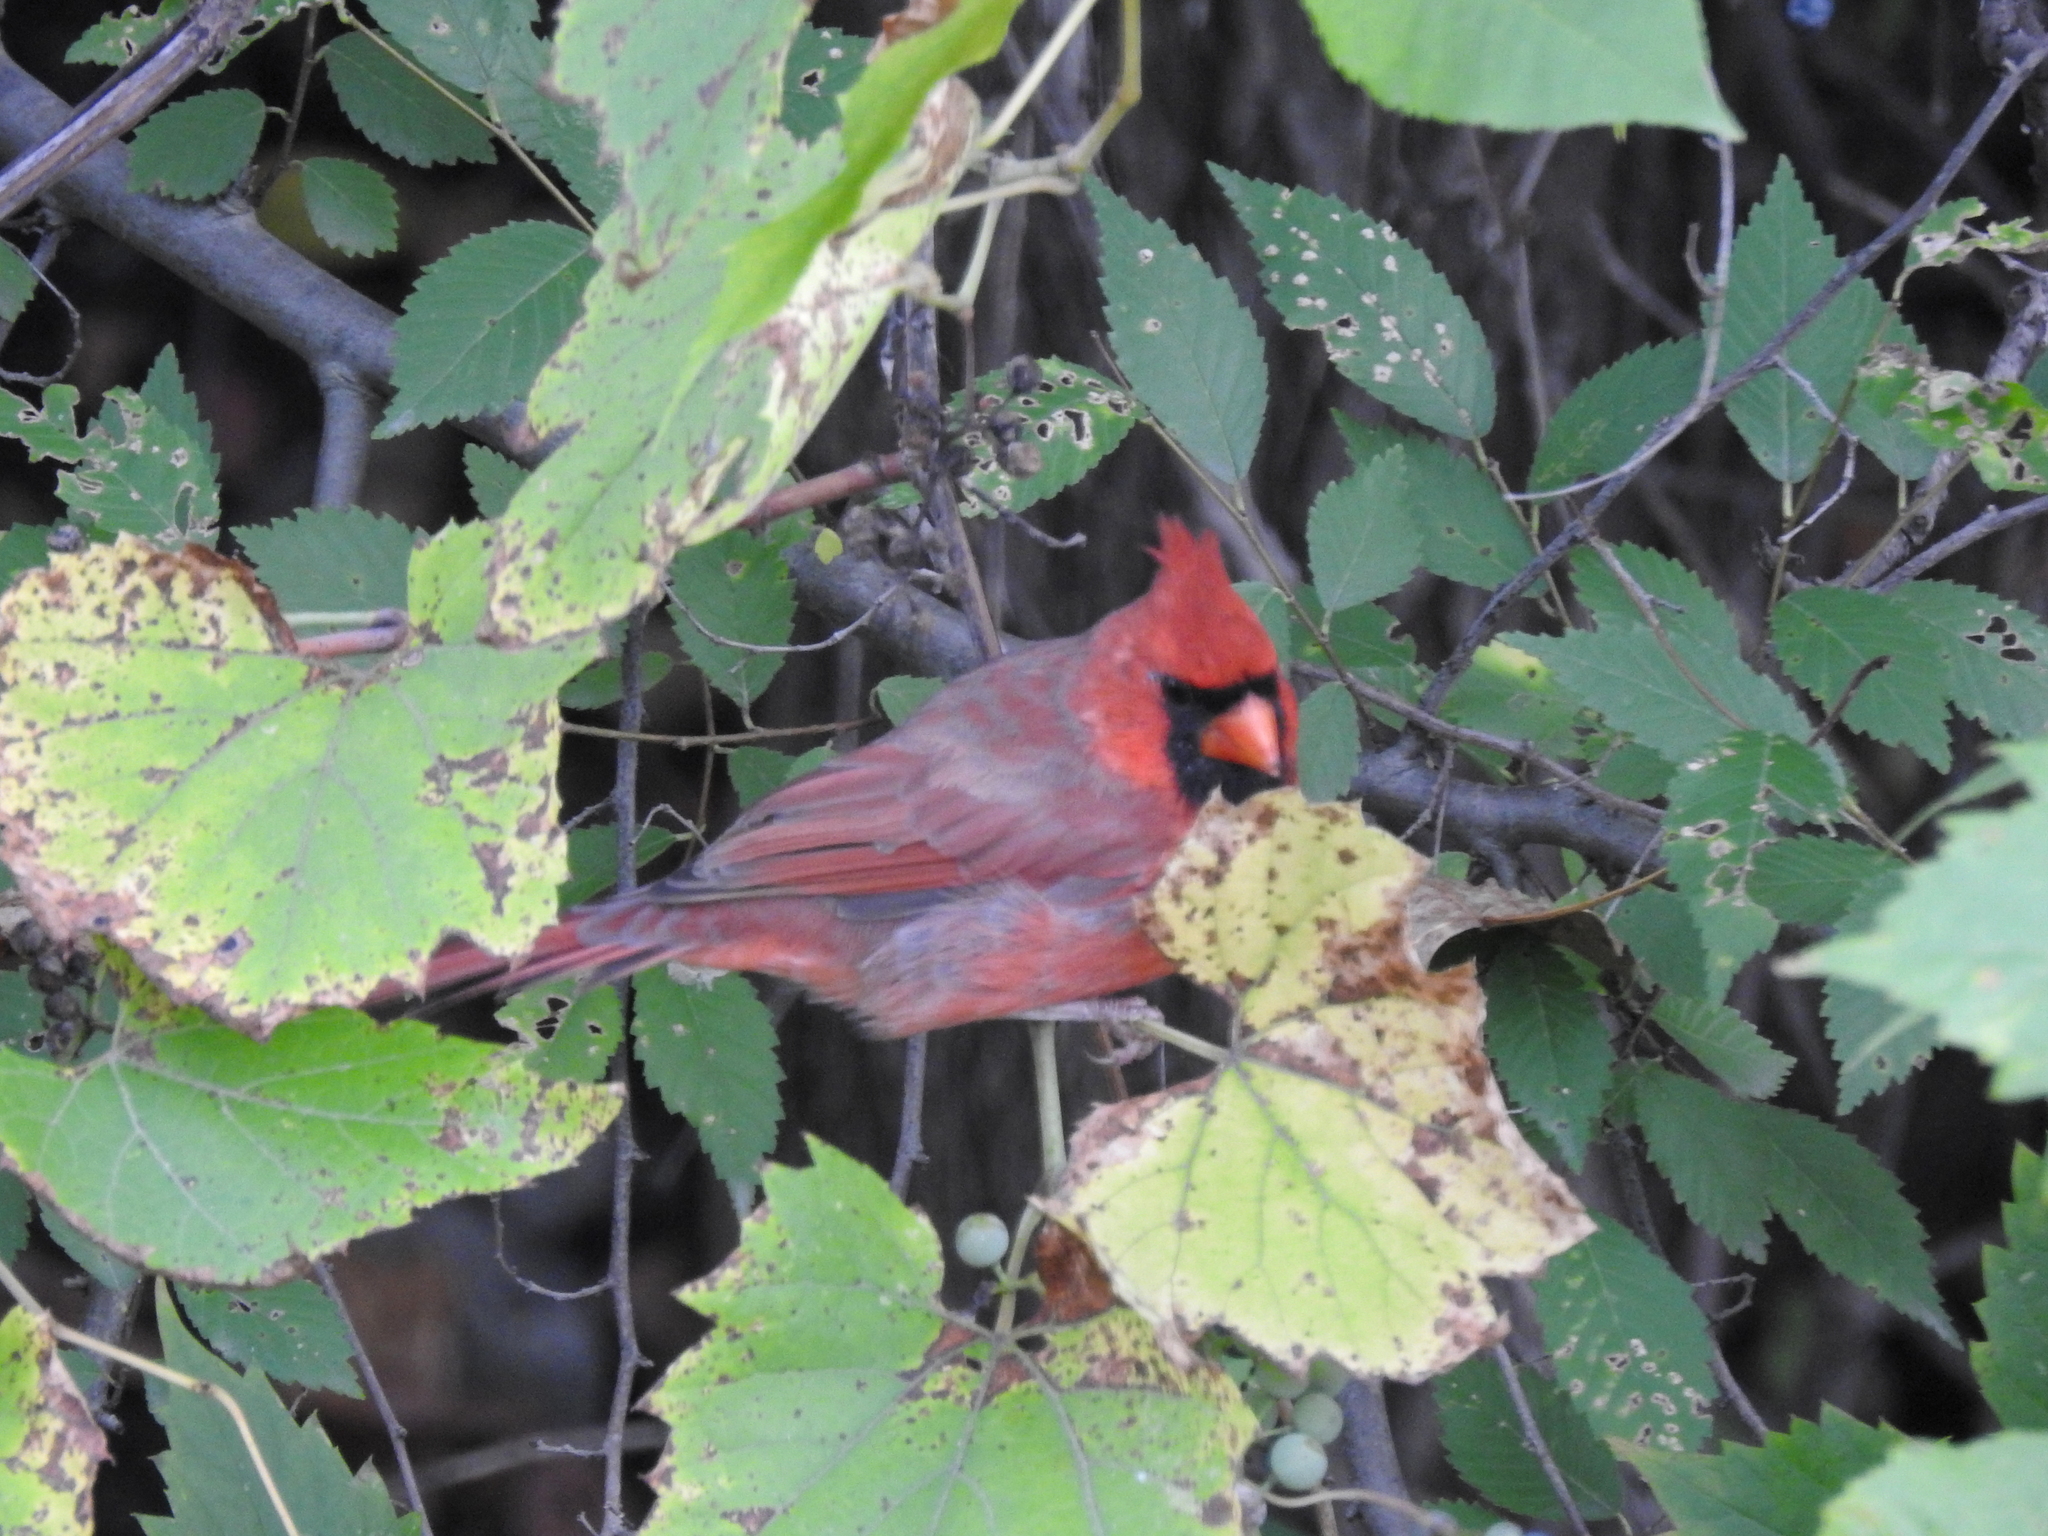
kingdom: Animalia
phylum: Chordata
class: Aves
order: Passeriformes
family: Cardinalidae
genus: Cardinalis
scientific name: Cardinalis cardinalis
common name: Northern cardinal
